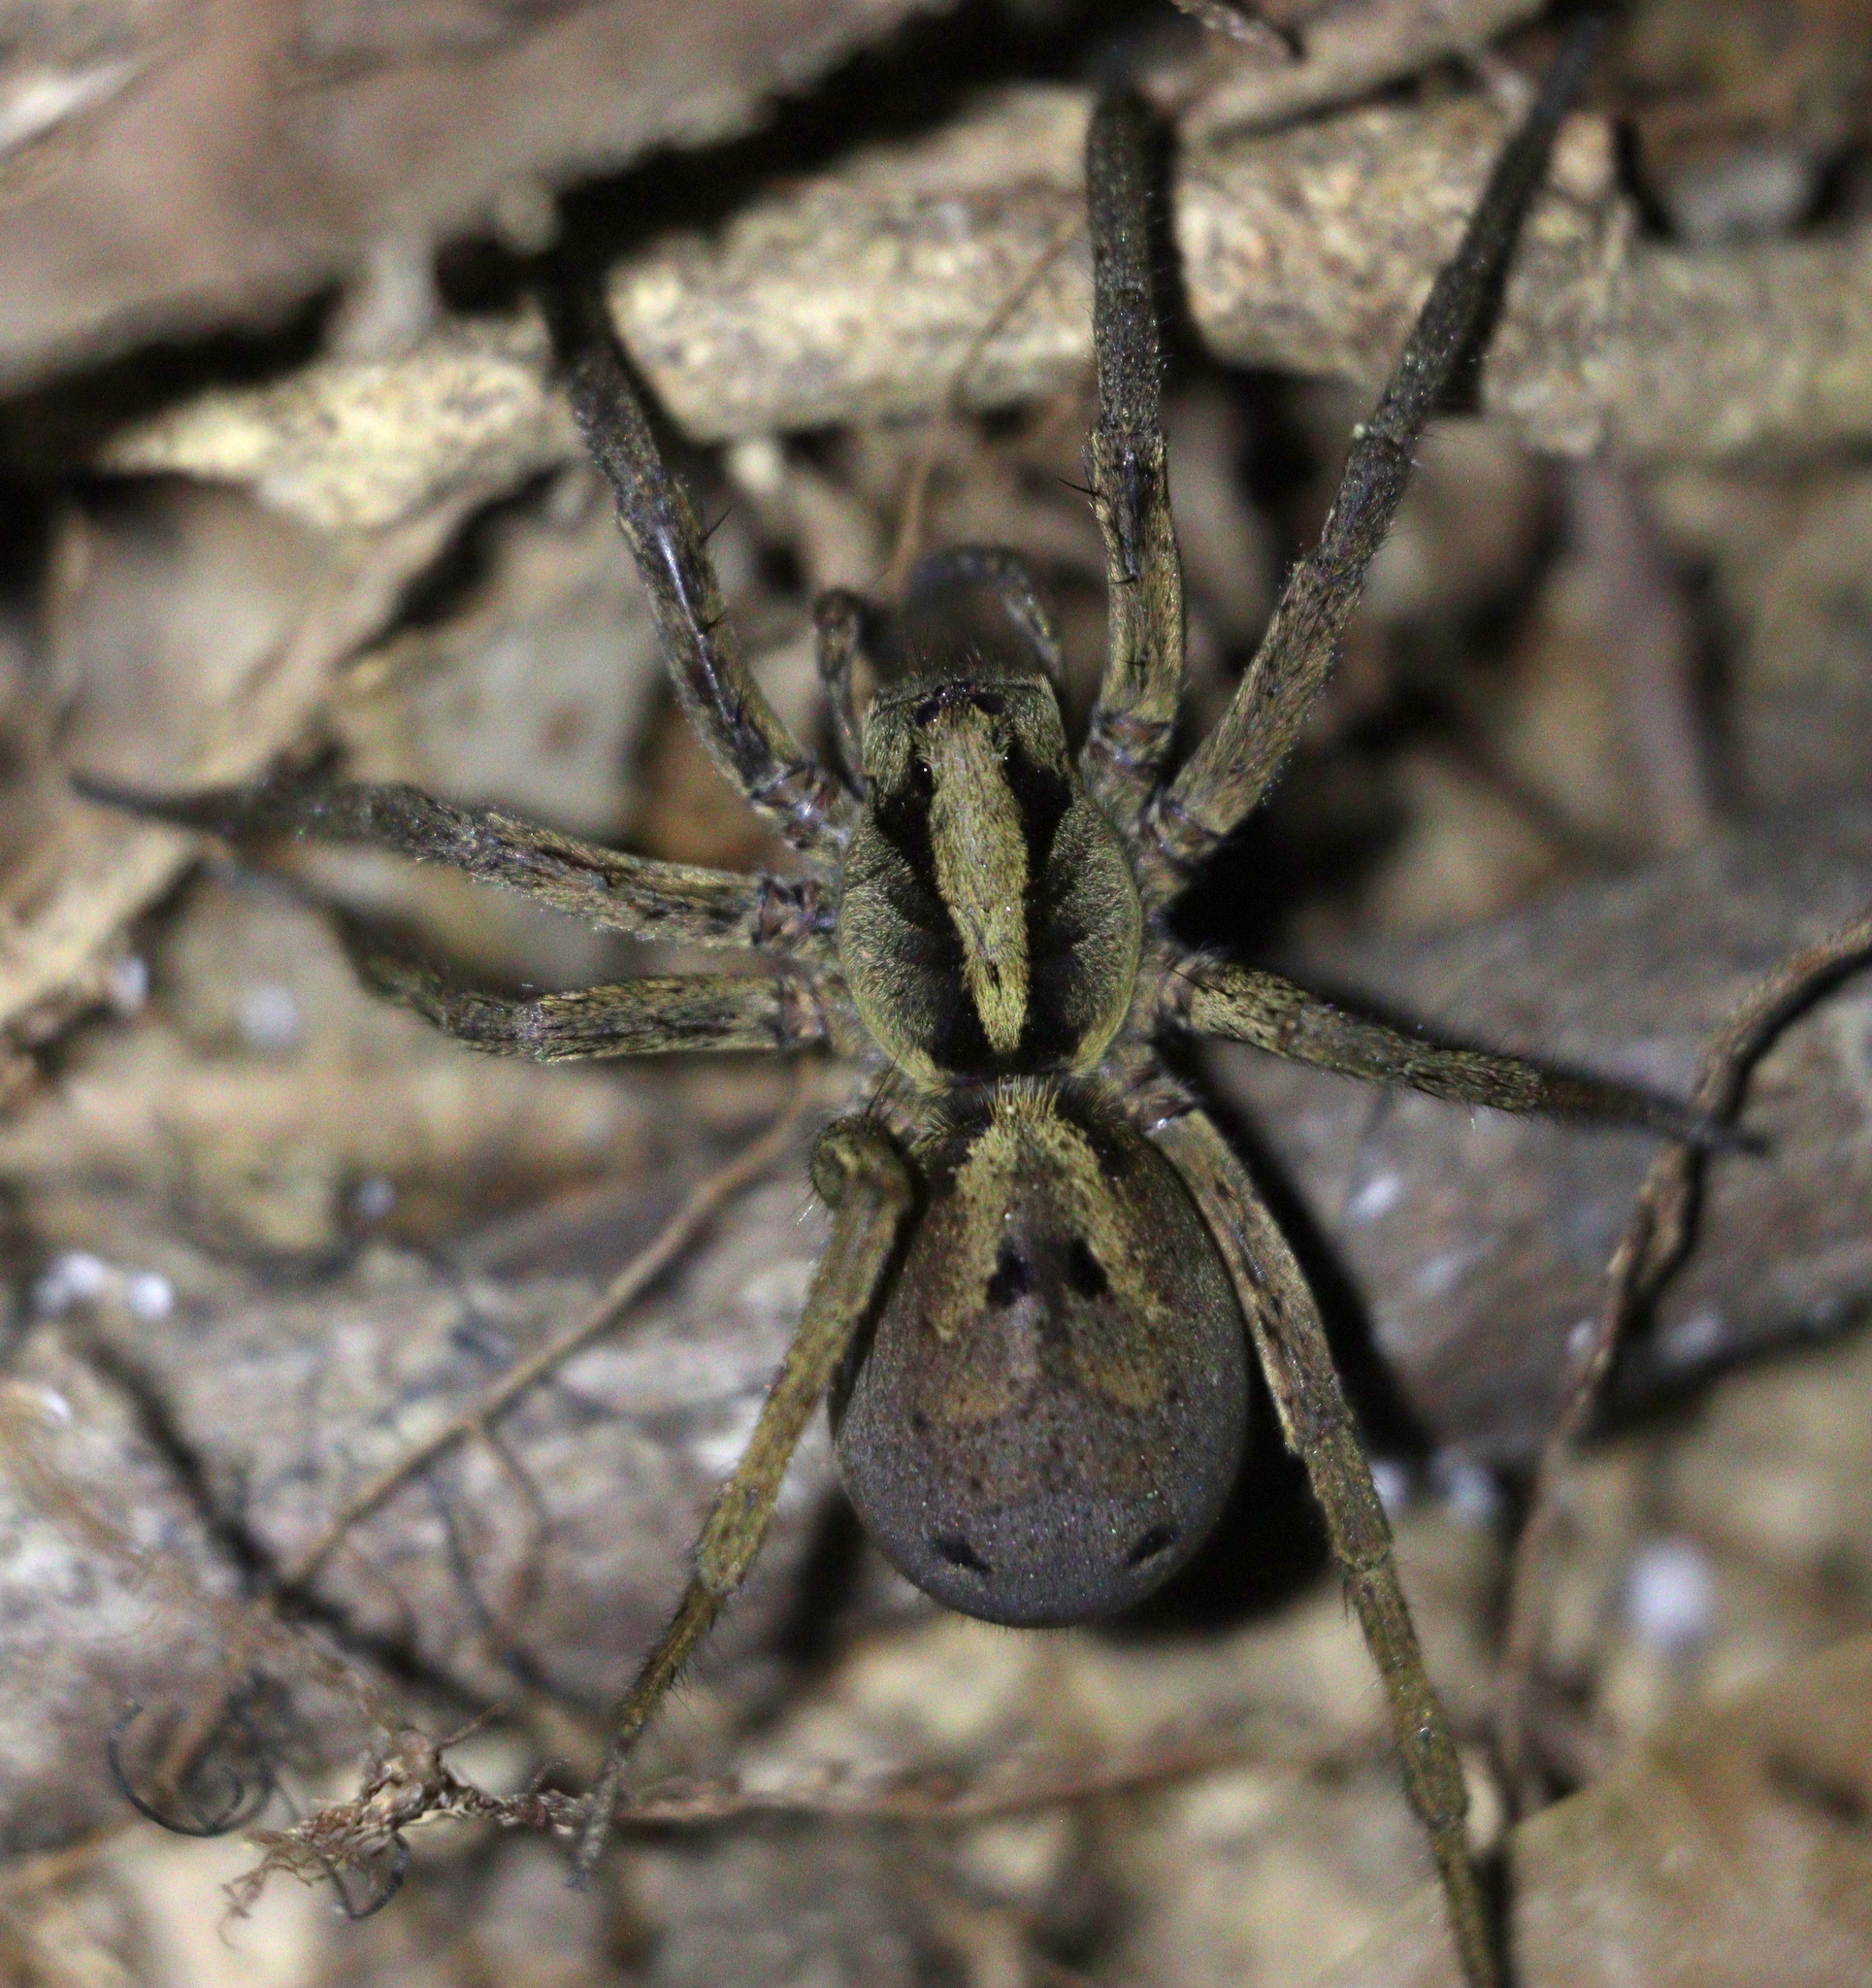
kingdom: Animalia
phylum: Arthropoda
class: Arachnida
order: Araneae
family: Lycosidae
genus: Hogna
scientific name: Hogna gumia
